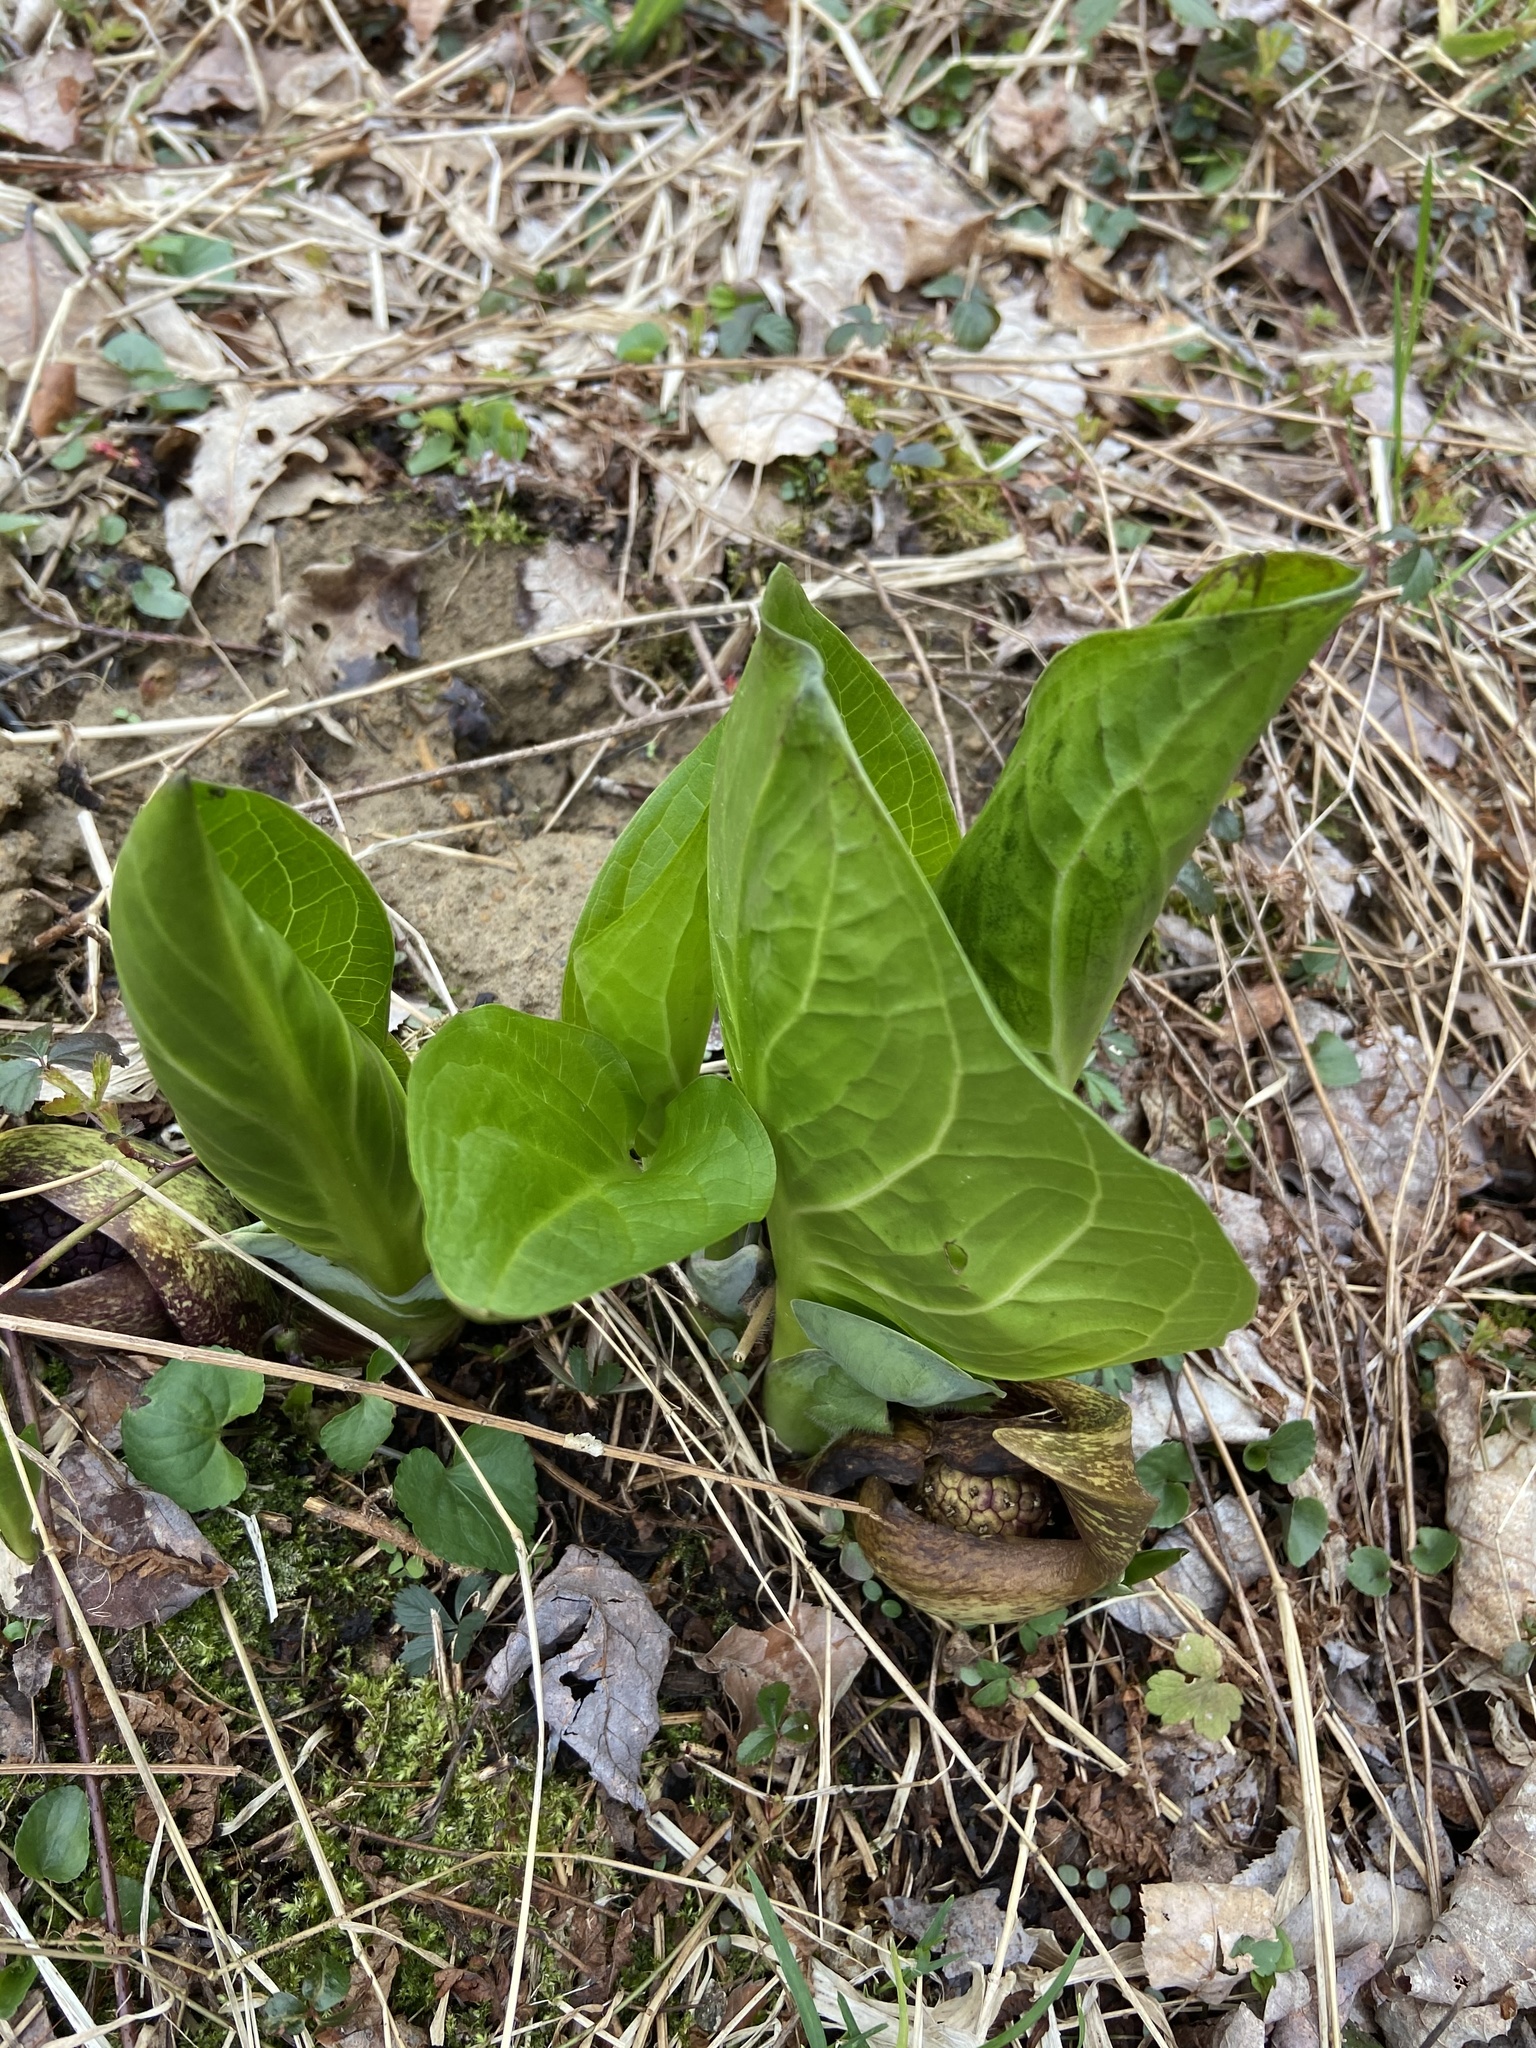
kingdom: Plantae
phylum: Tracheophyta
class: Liliopsida
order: Alismatales
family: Araceae
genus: Symplocarpus
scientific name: Symplocarpus foetidus
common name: Eastern skunk cabbage
